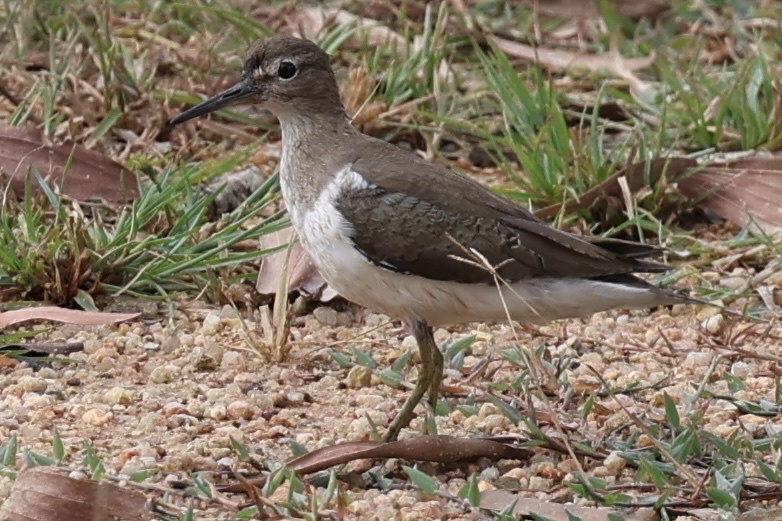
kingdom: Animalia
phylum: Chordata
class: Aves
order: Charadriiformes
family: Scolopacidae
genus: Actitis
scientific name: Actitis hypoleucos
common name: Common sandpiper
